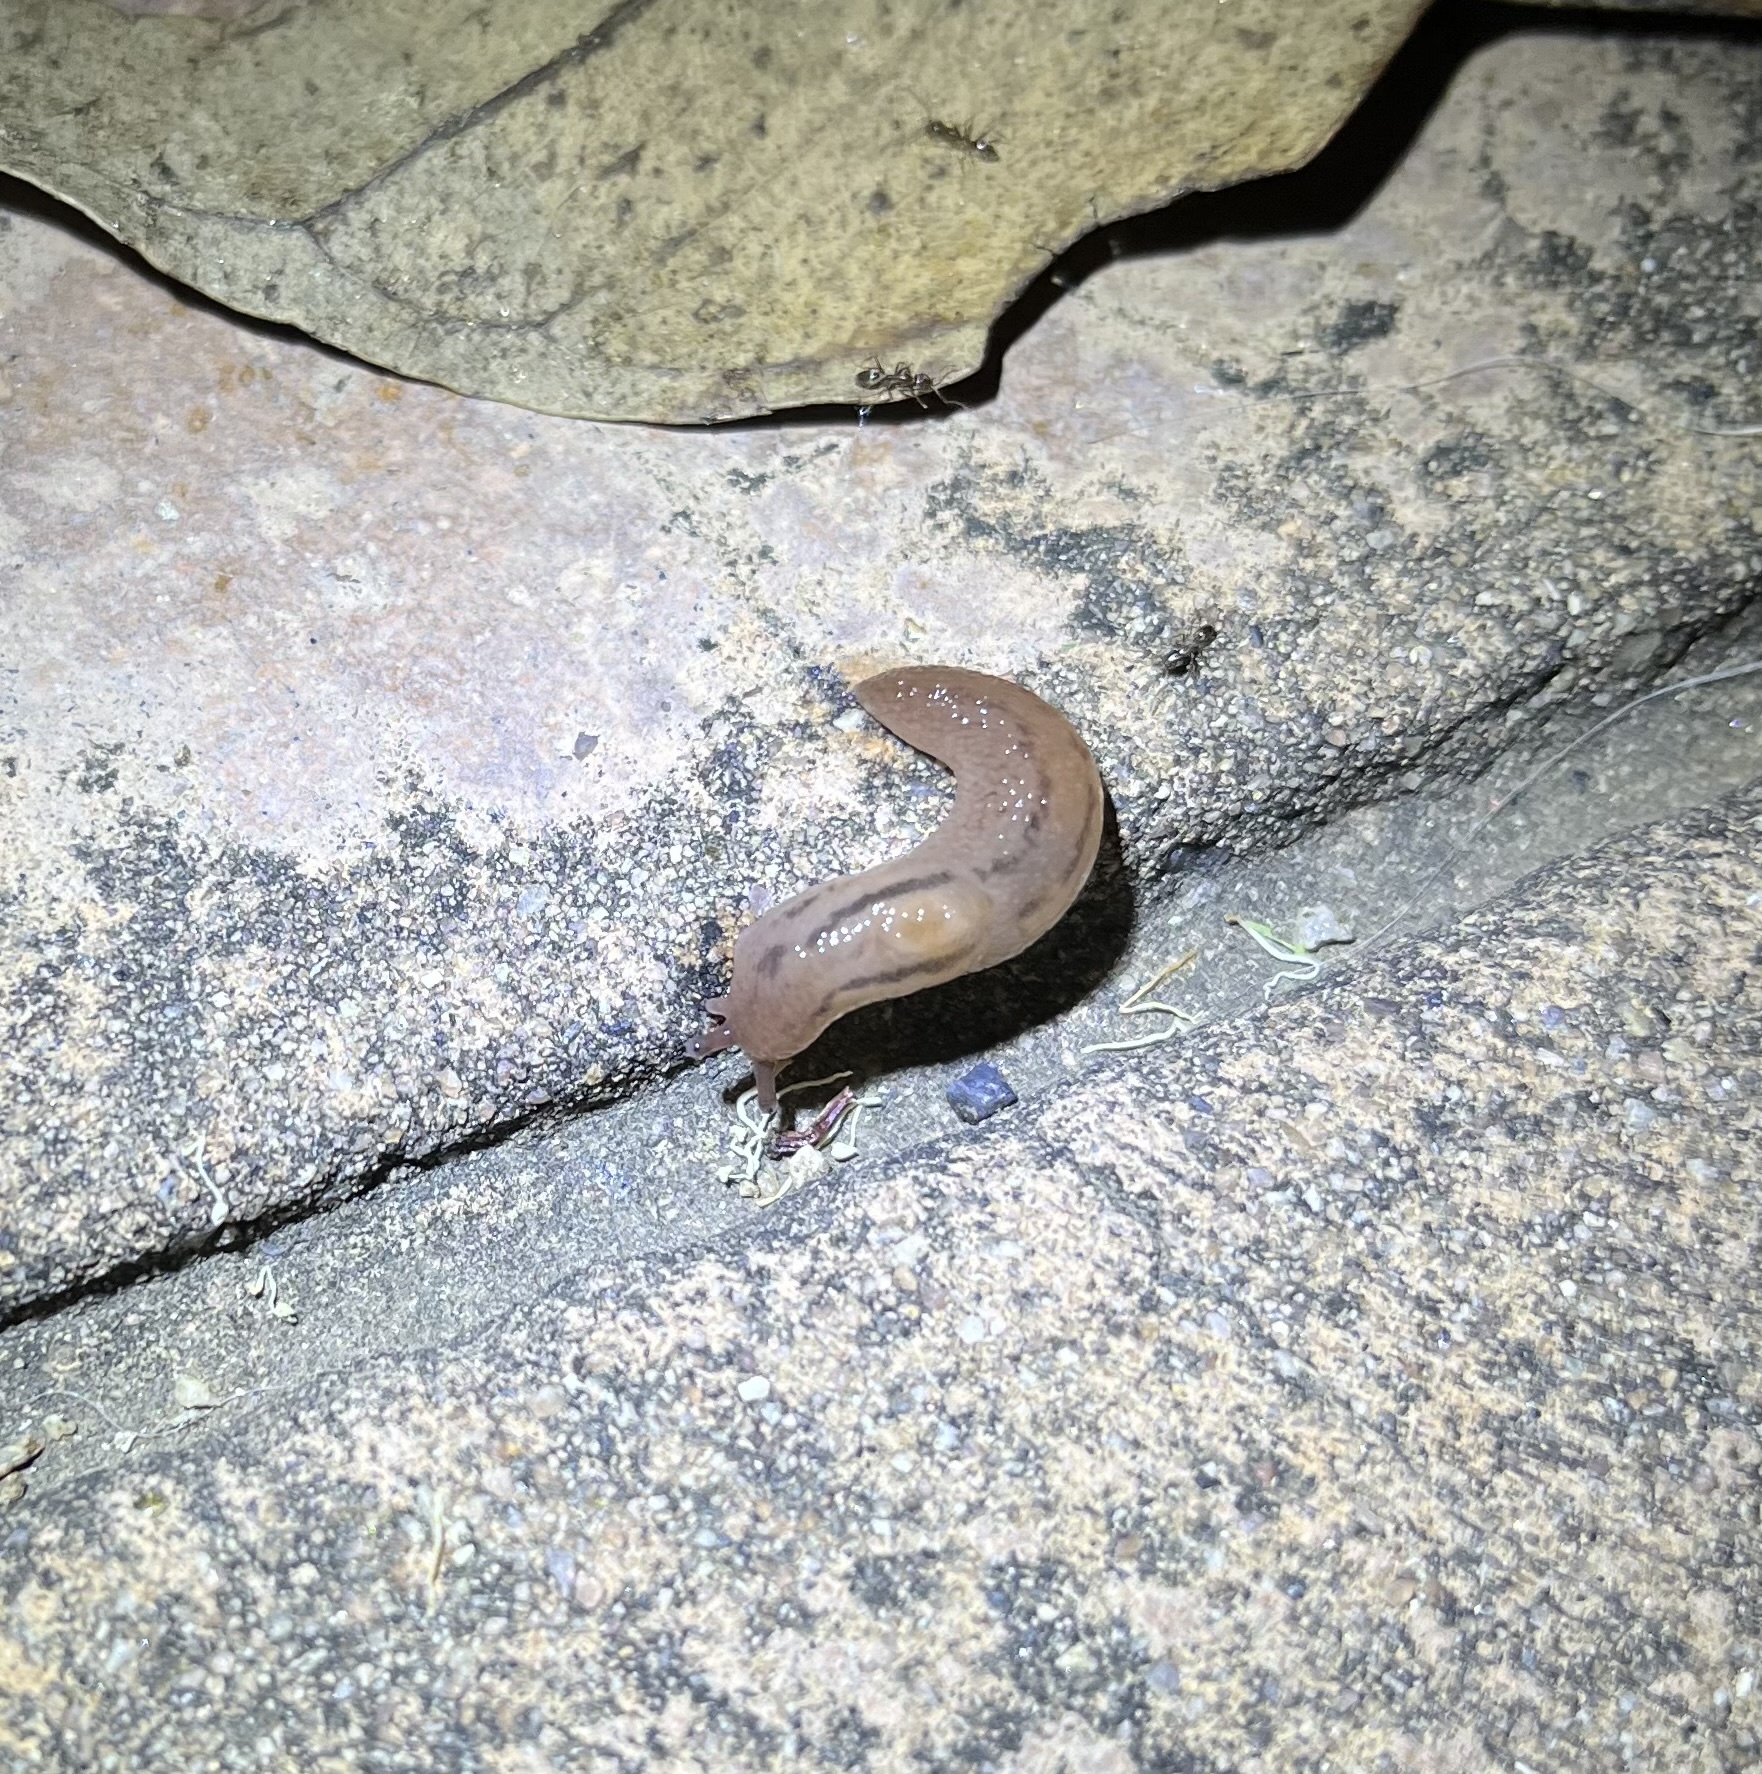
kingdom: Animalia
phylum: Mollusca
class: Gastropoda
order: Stylommatophora
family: Limacidae
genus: Ambigolimax
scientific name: Ambigolimax
